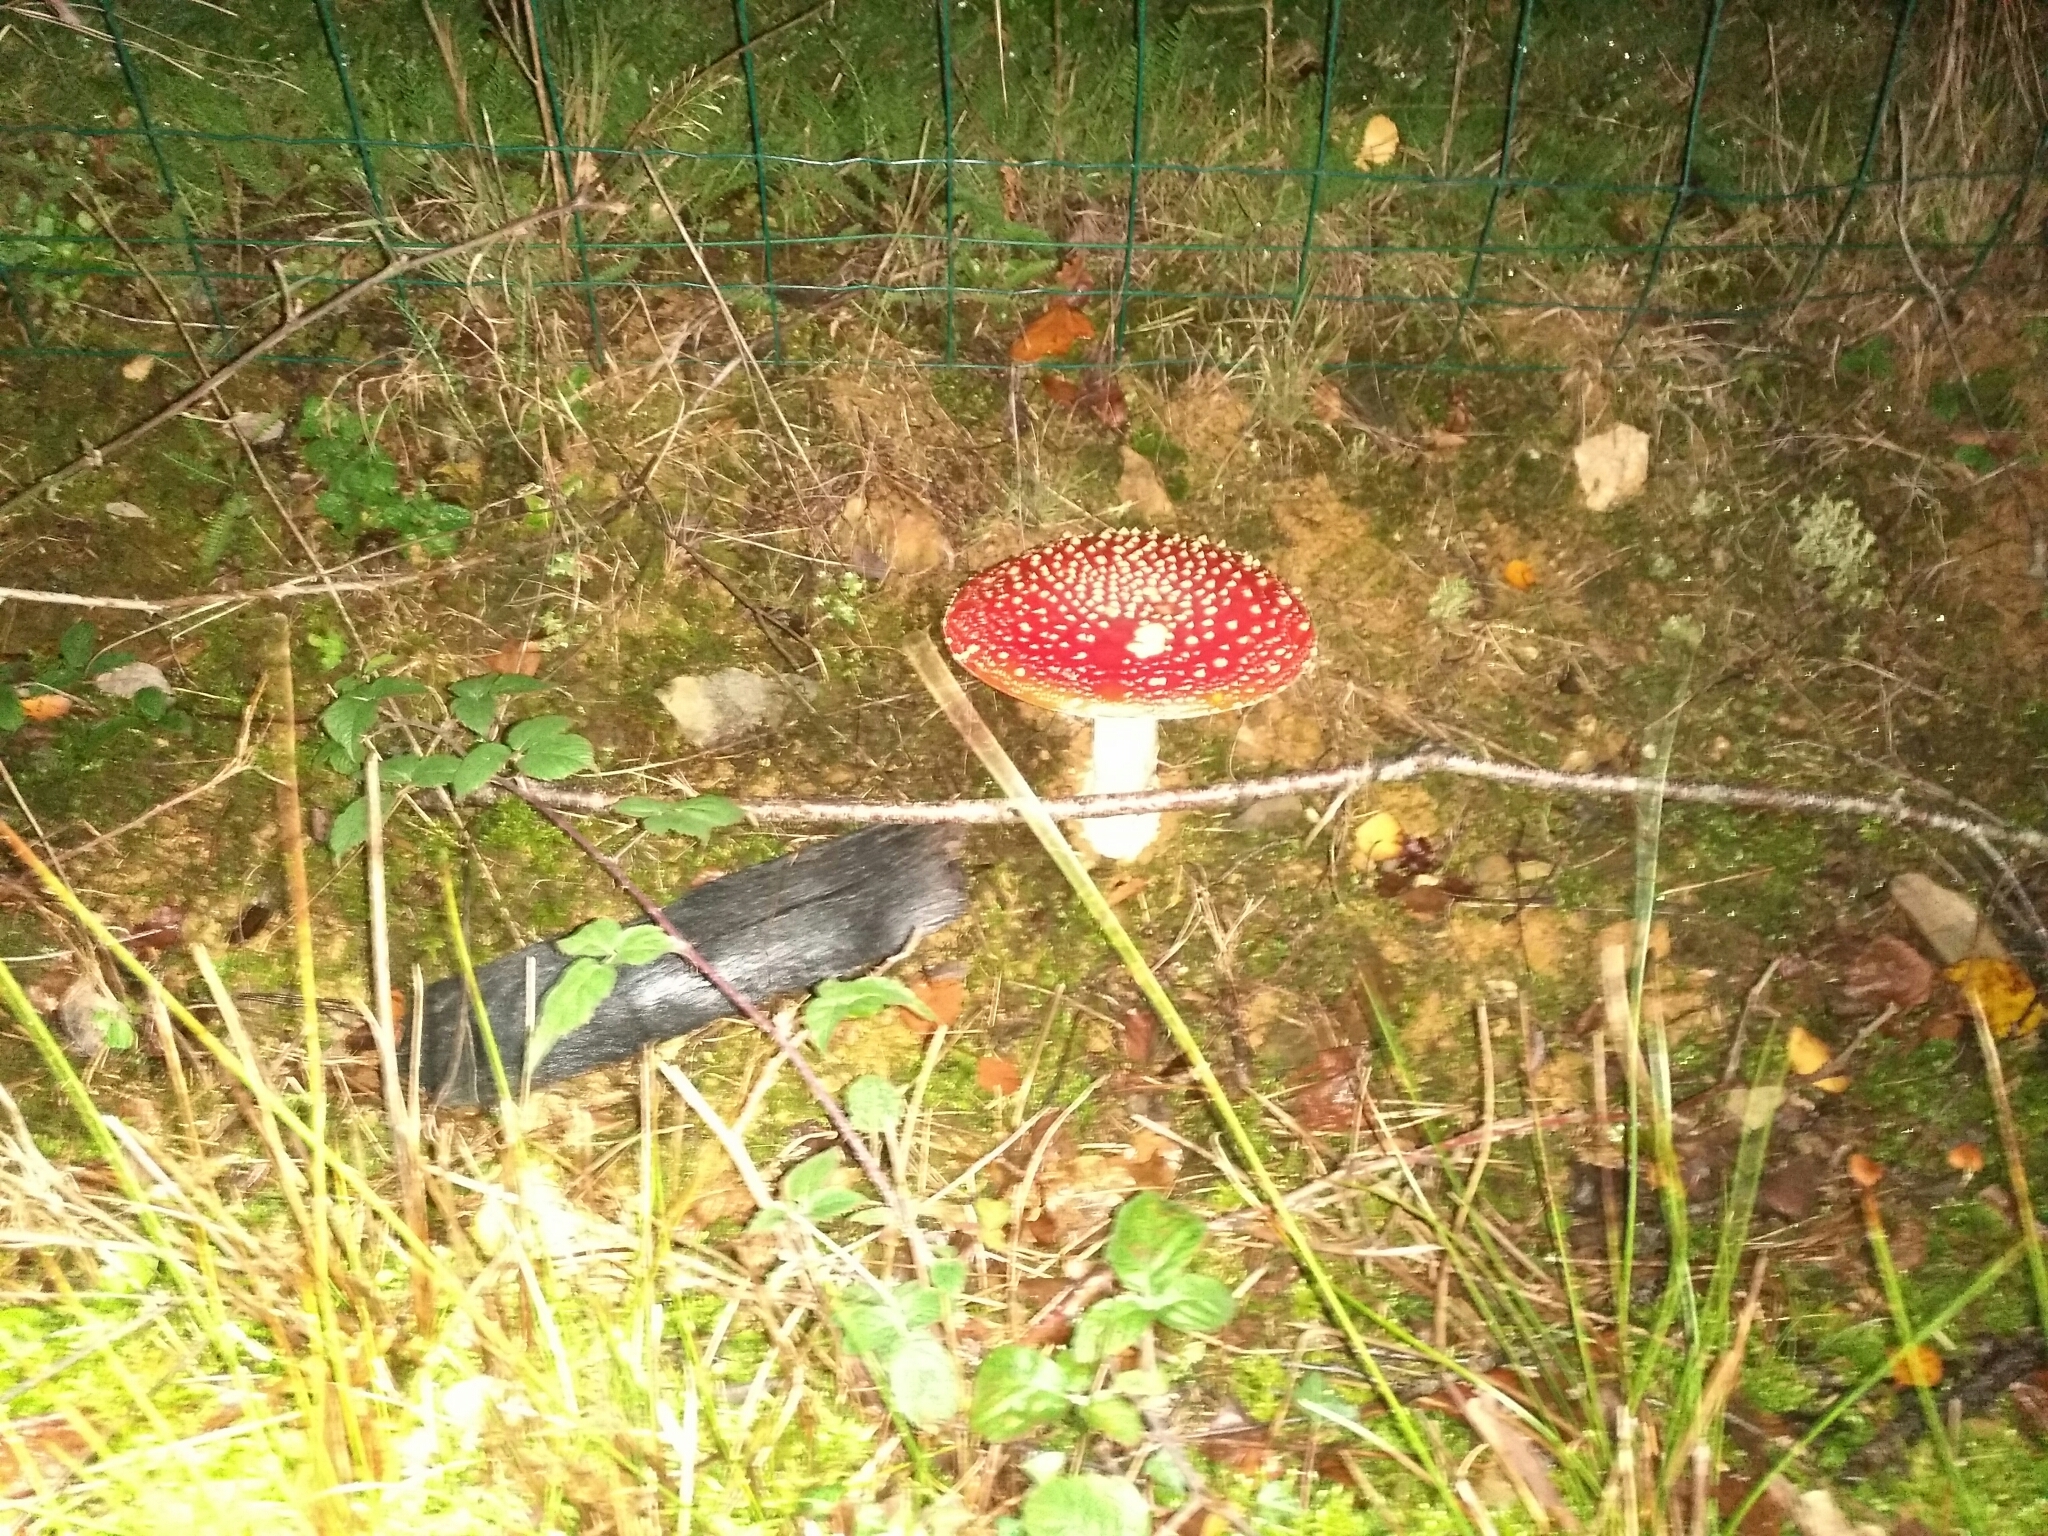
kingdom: Fungi
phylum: Basidiomycota
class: Agaricomycetes
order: Agaricales
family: Amanitaceae
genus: Amanita
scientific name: Amanita muscaria
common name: Fly agaric
